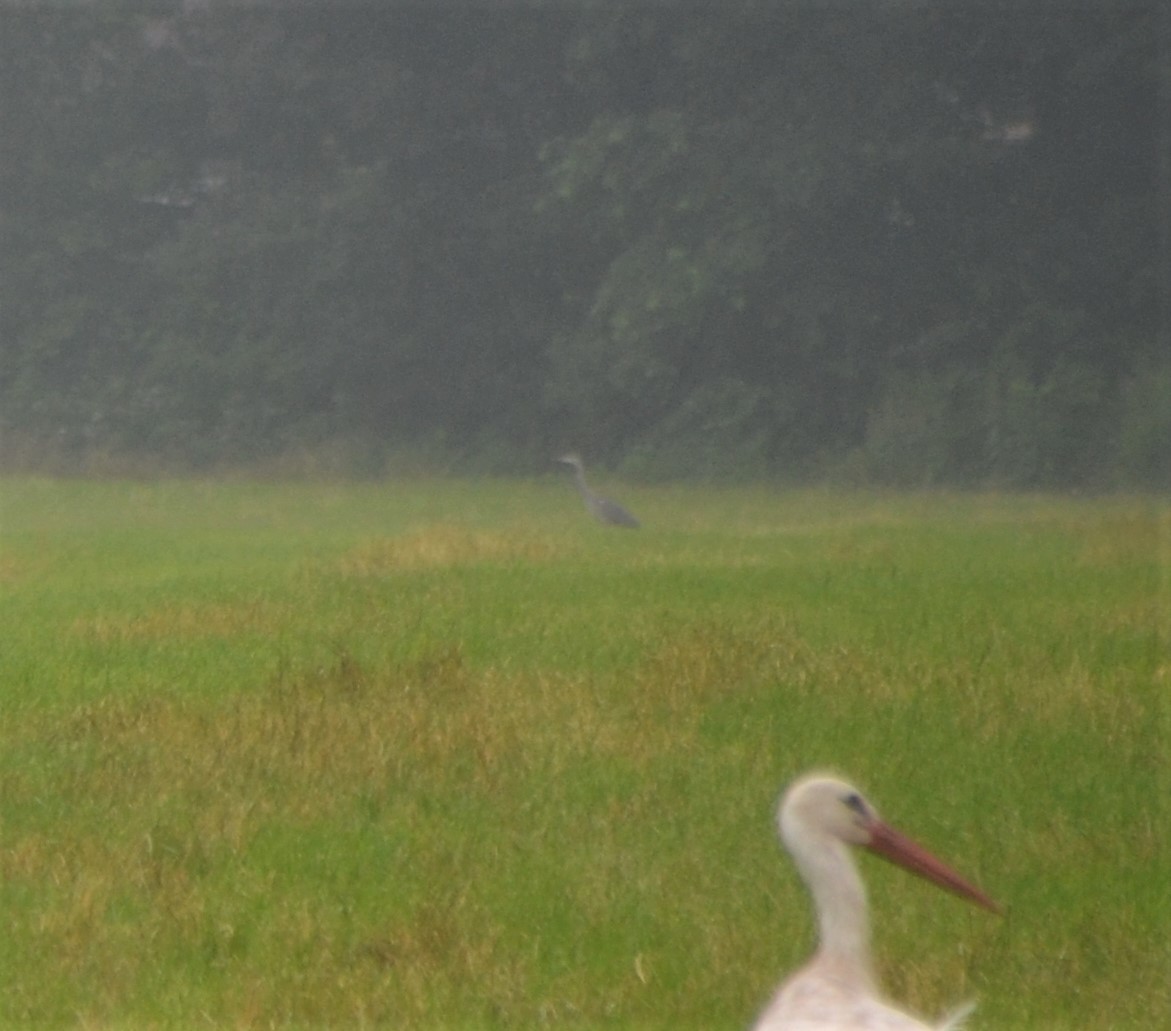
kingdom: Animalia
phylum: Chordata
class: Aves
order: Pelecaniformes
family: Ardeidae
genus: Ardea
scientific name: Ardea cinerea
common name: Grey heron
